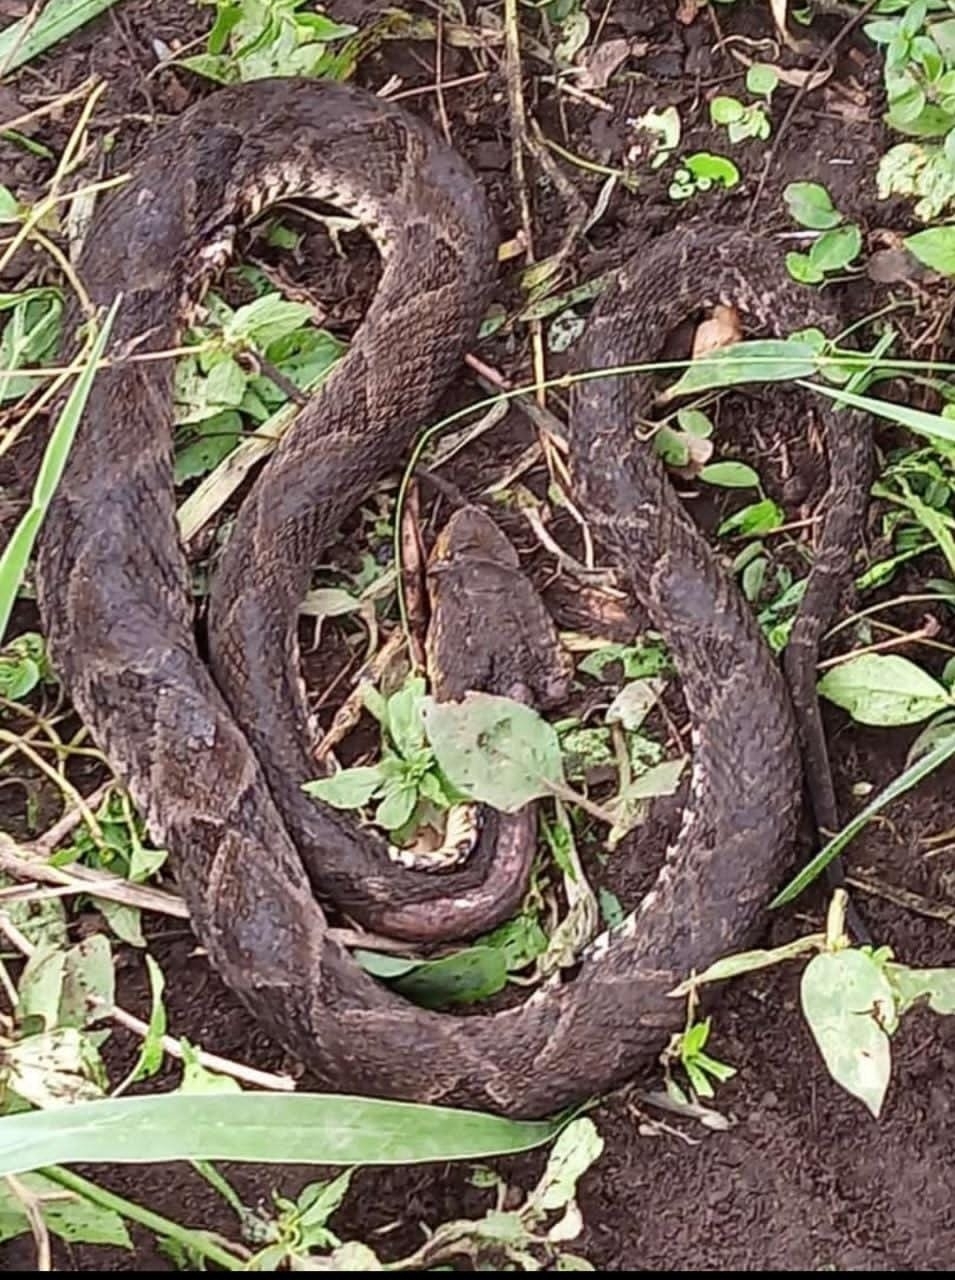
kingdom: Animalia
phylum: Chordata
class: Squamata
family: Viperidae
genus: Bothrops
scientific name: Bothrops asper
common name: Terciopelo
